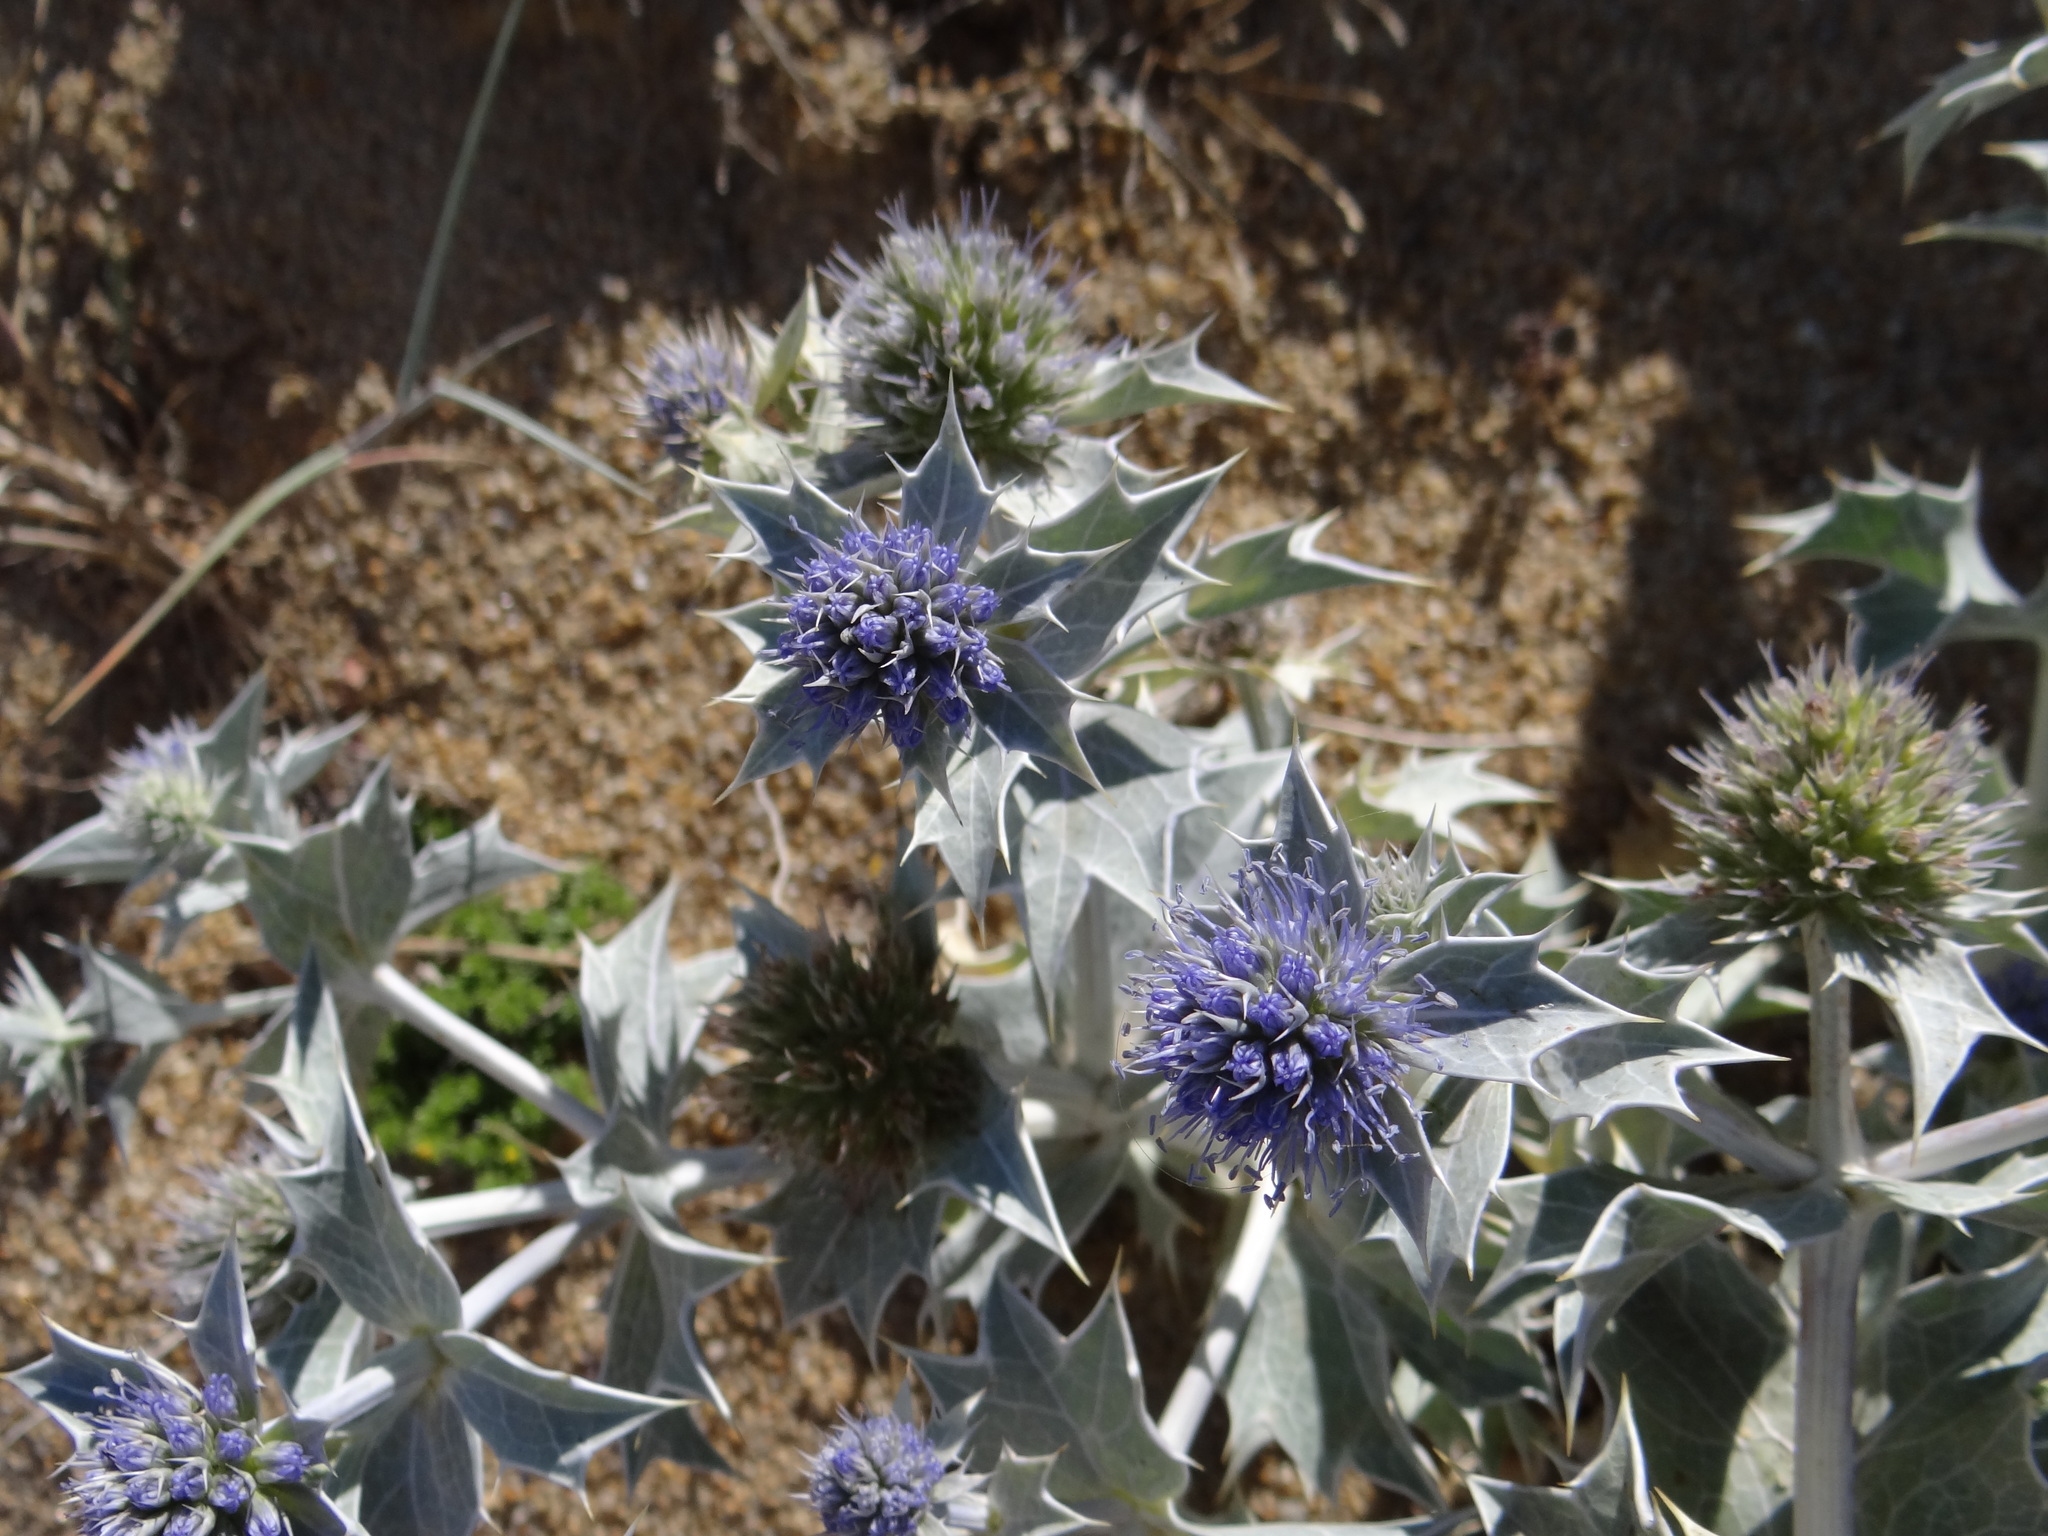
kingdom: Plantae
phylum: Tracheophyta
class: Magnoliopsida
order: Apiales
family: Apiaceae
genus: Eryngium
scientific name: Eryngium maritimum
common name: Sea-holly
